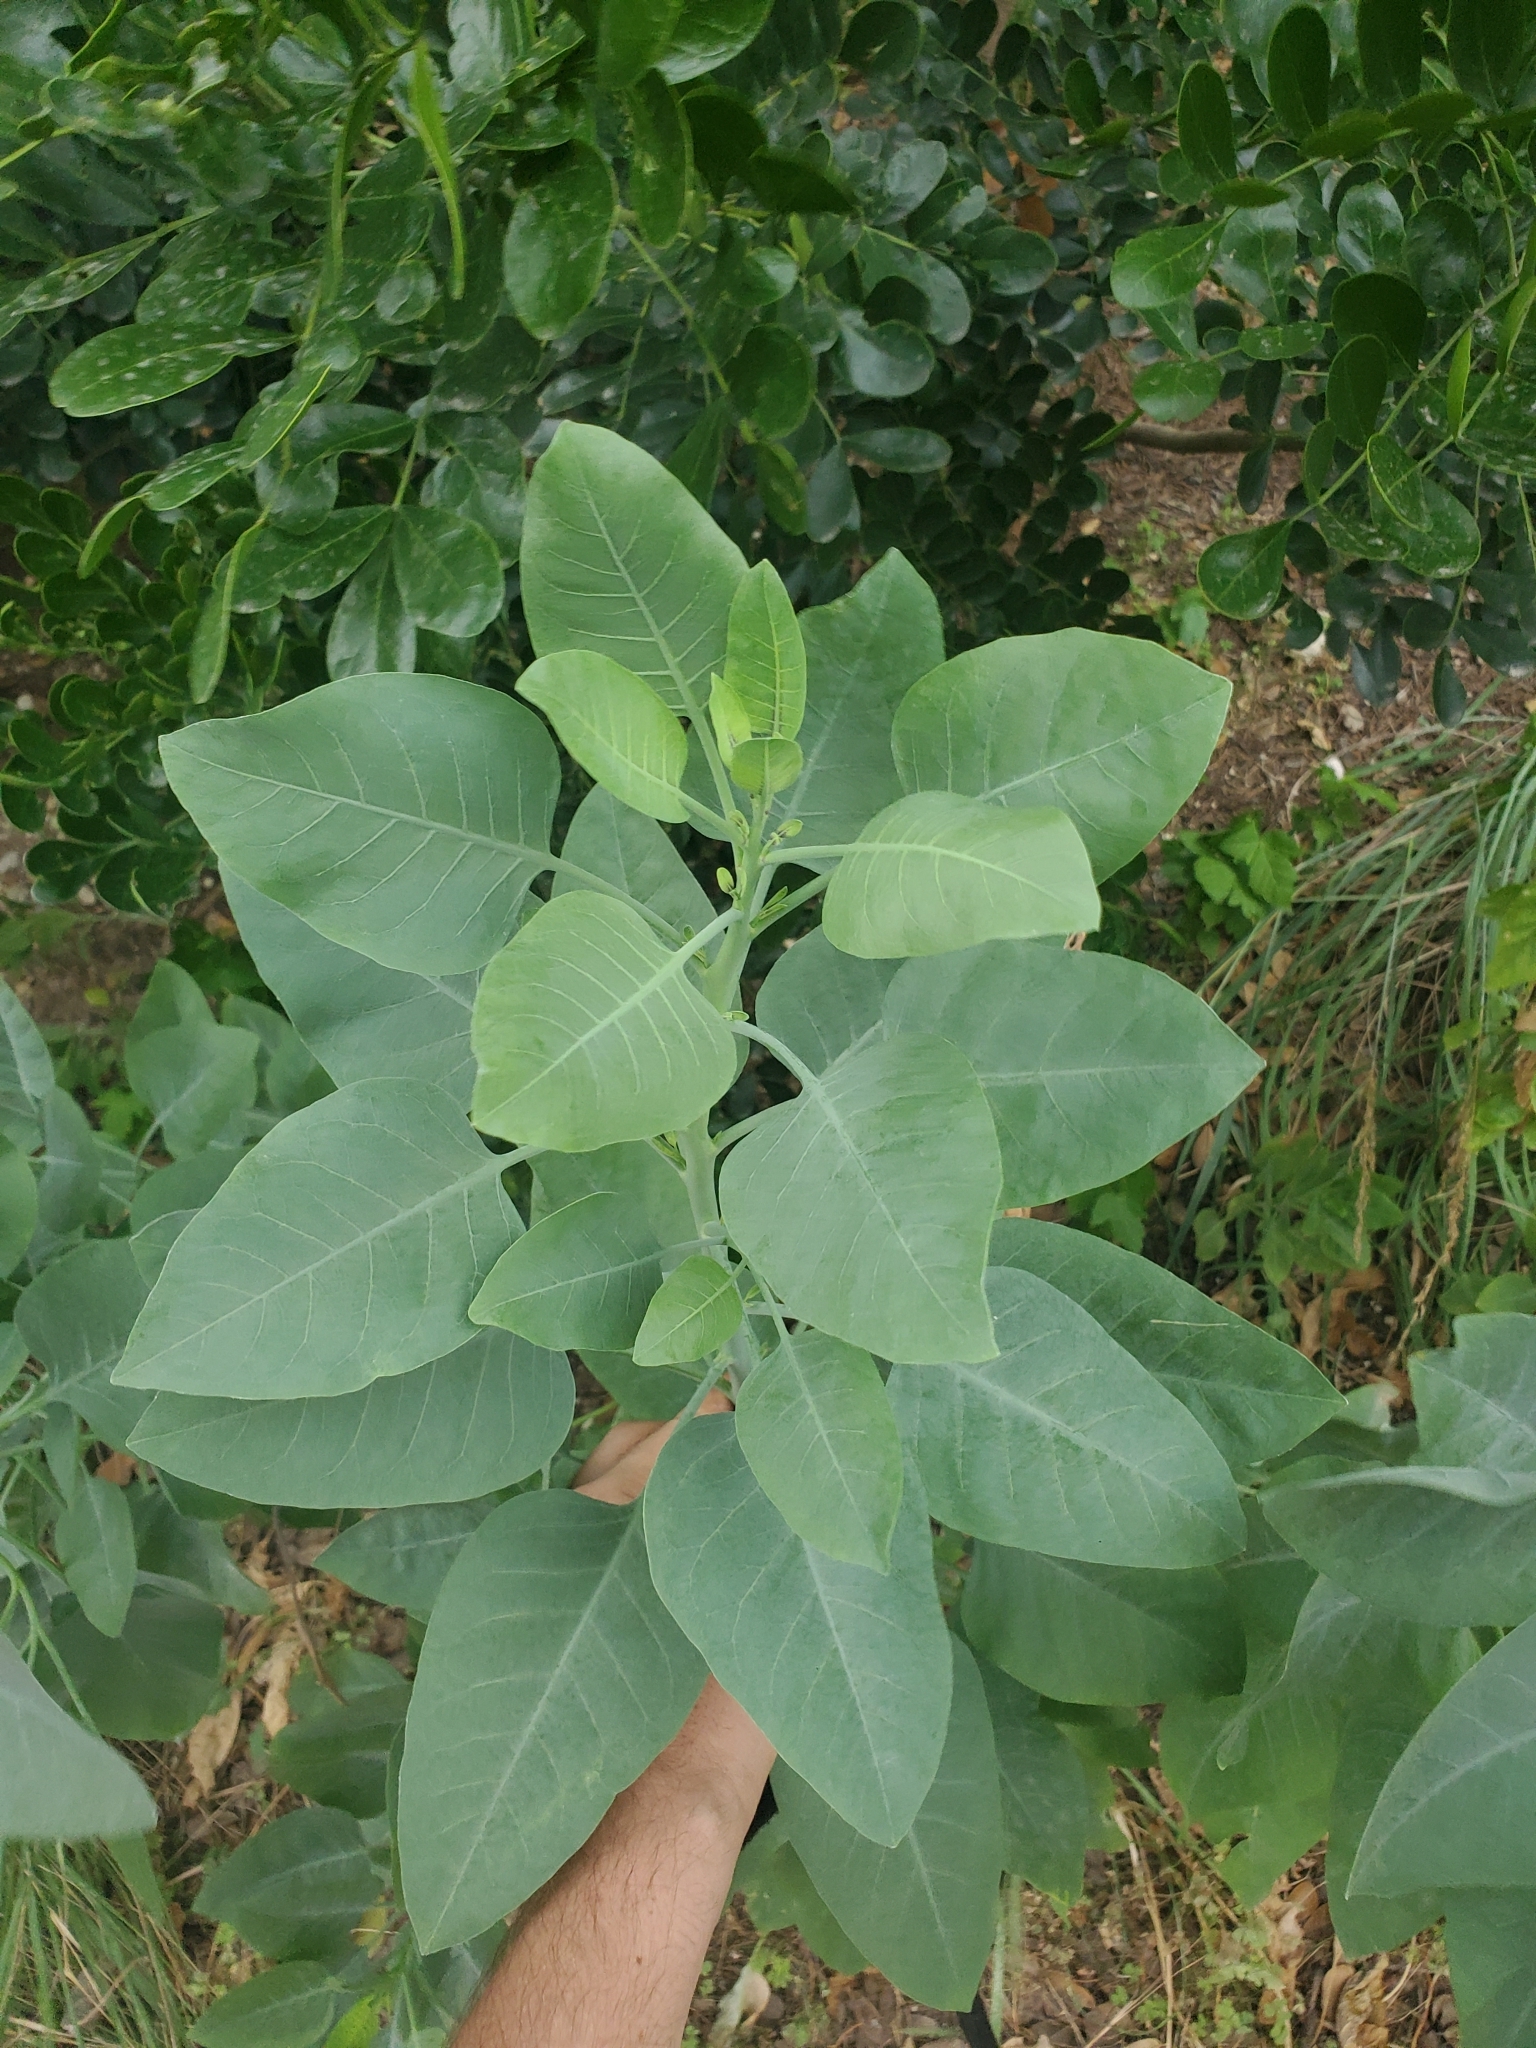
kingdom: Plantae
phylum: Tracheophyta
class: Magnoliopsida
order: Solanales
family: Solanaceae
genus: Nicotiana
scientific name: Nicotiana glauca
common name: Tree tobacco
